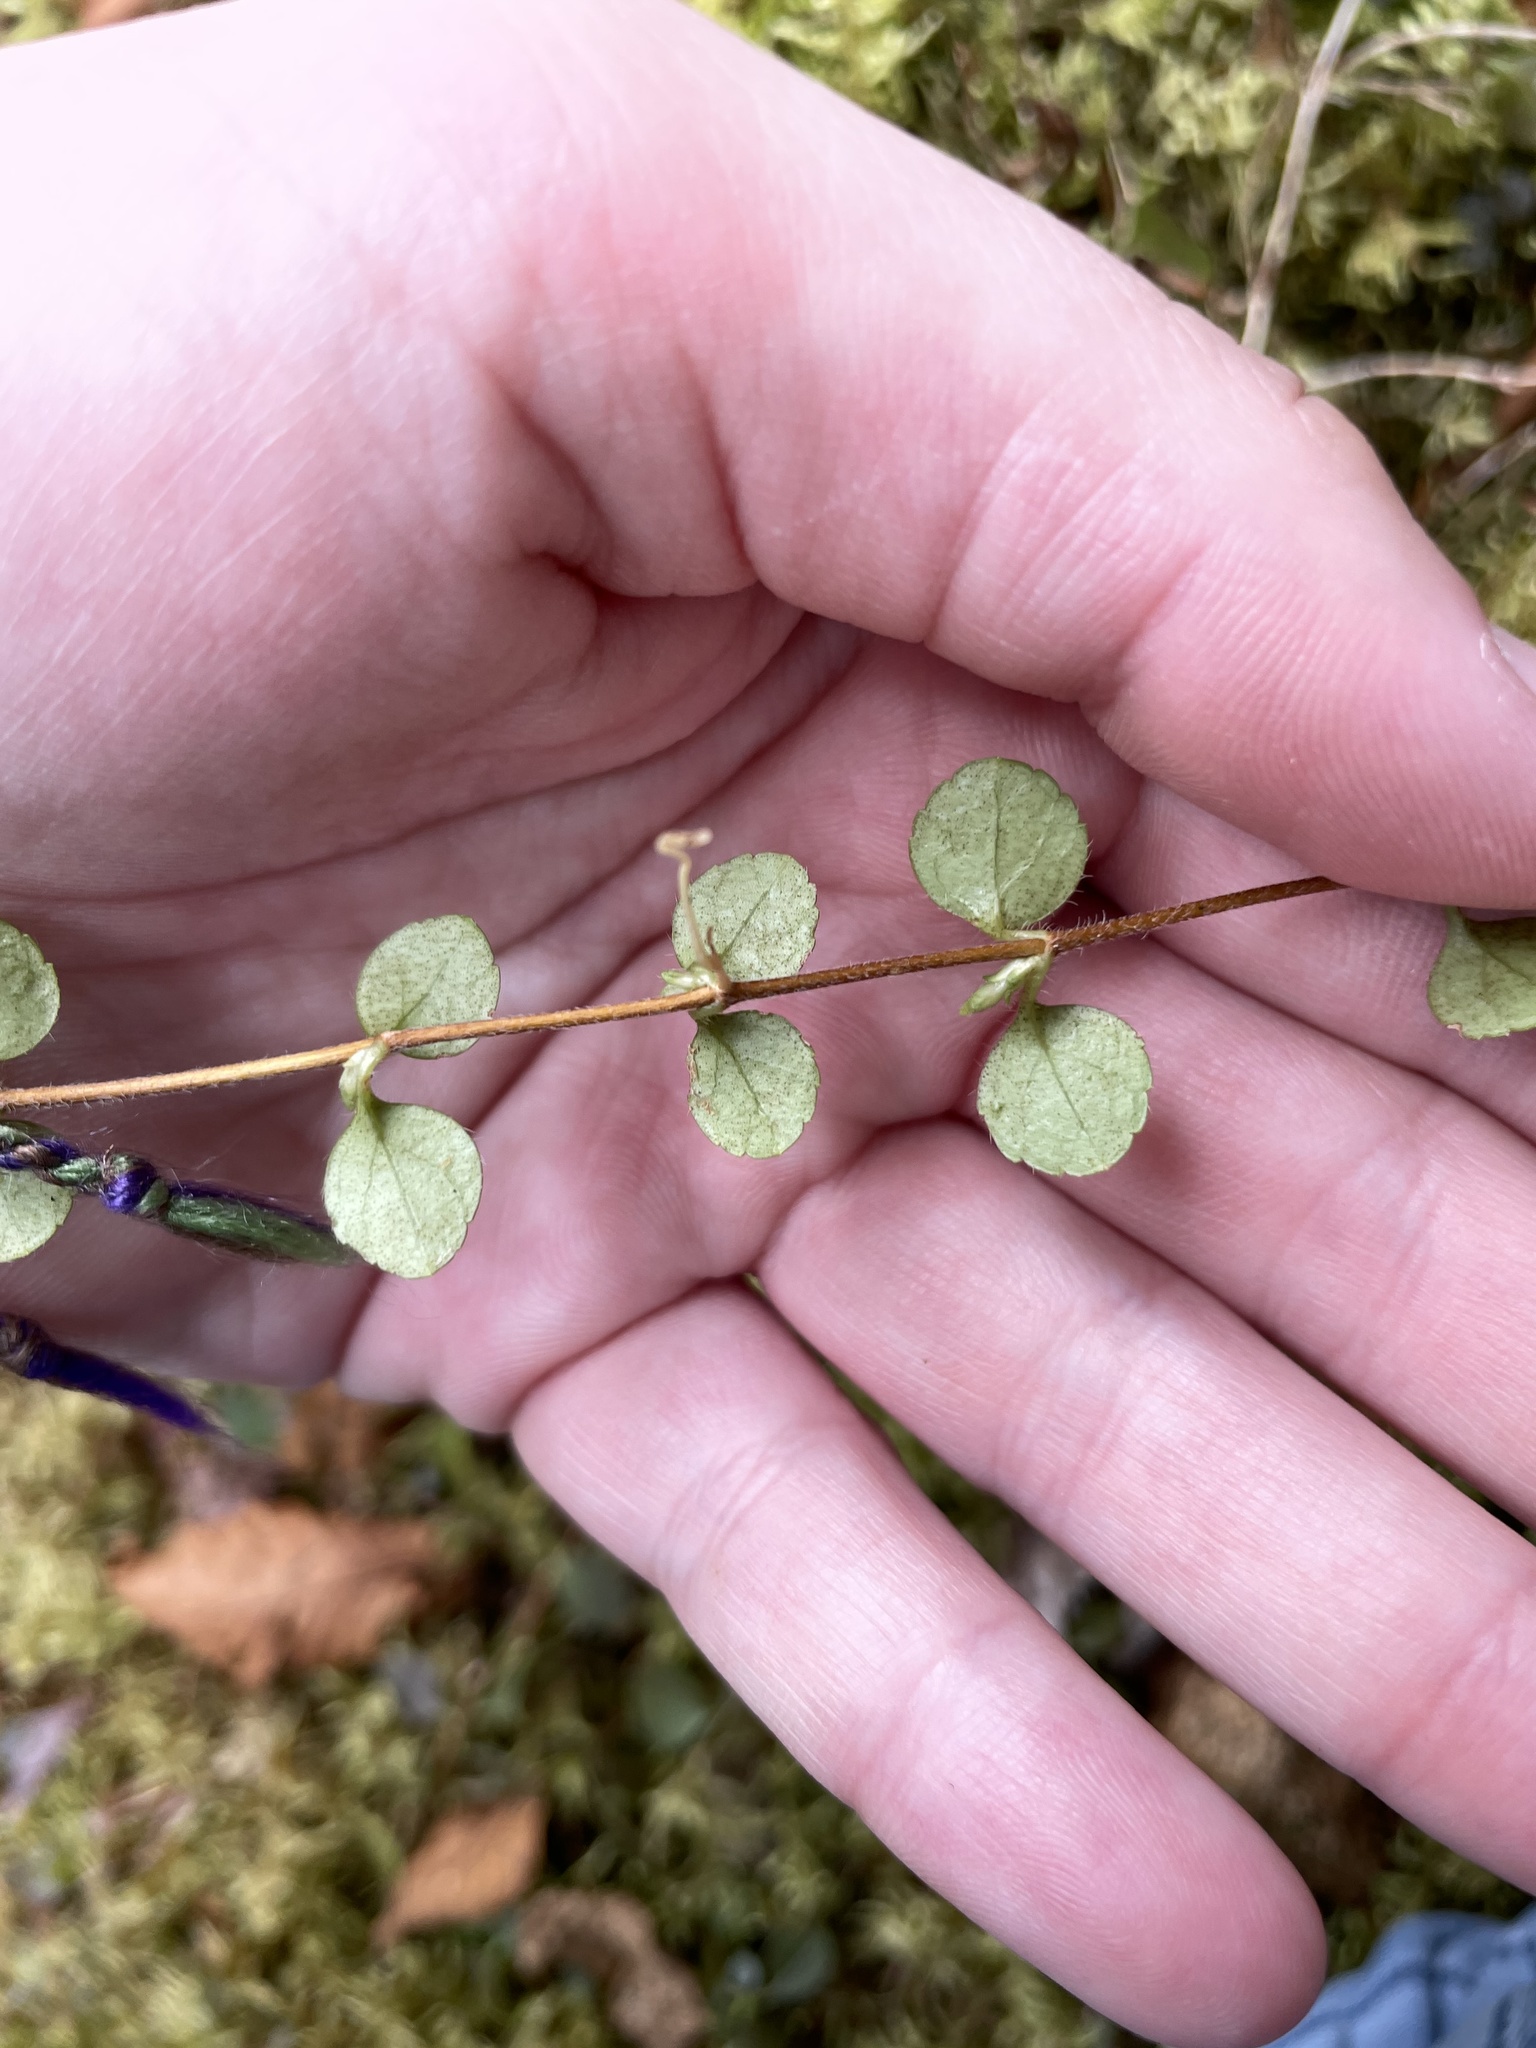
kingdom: Plantae
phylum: Tracheophyta
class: Magnoliopsida
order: Dipsacales
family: Caprifoliaceae
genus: Linnaea
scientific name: Linnaea borealis
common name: Twinflower
